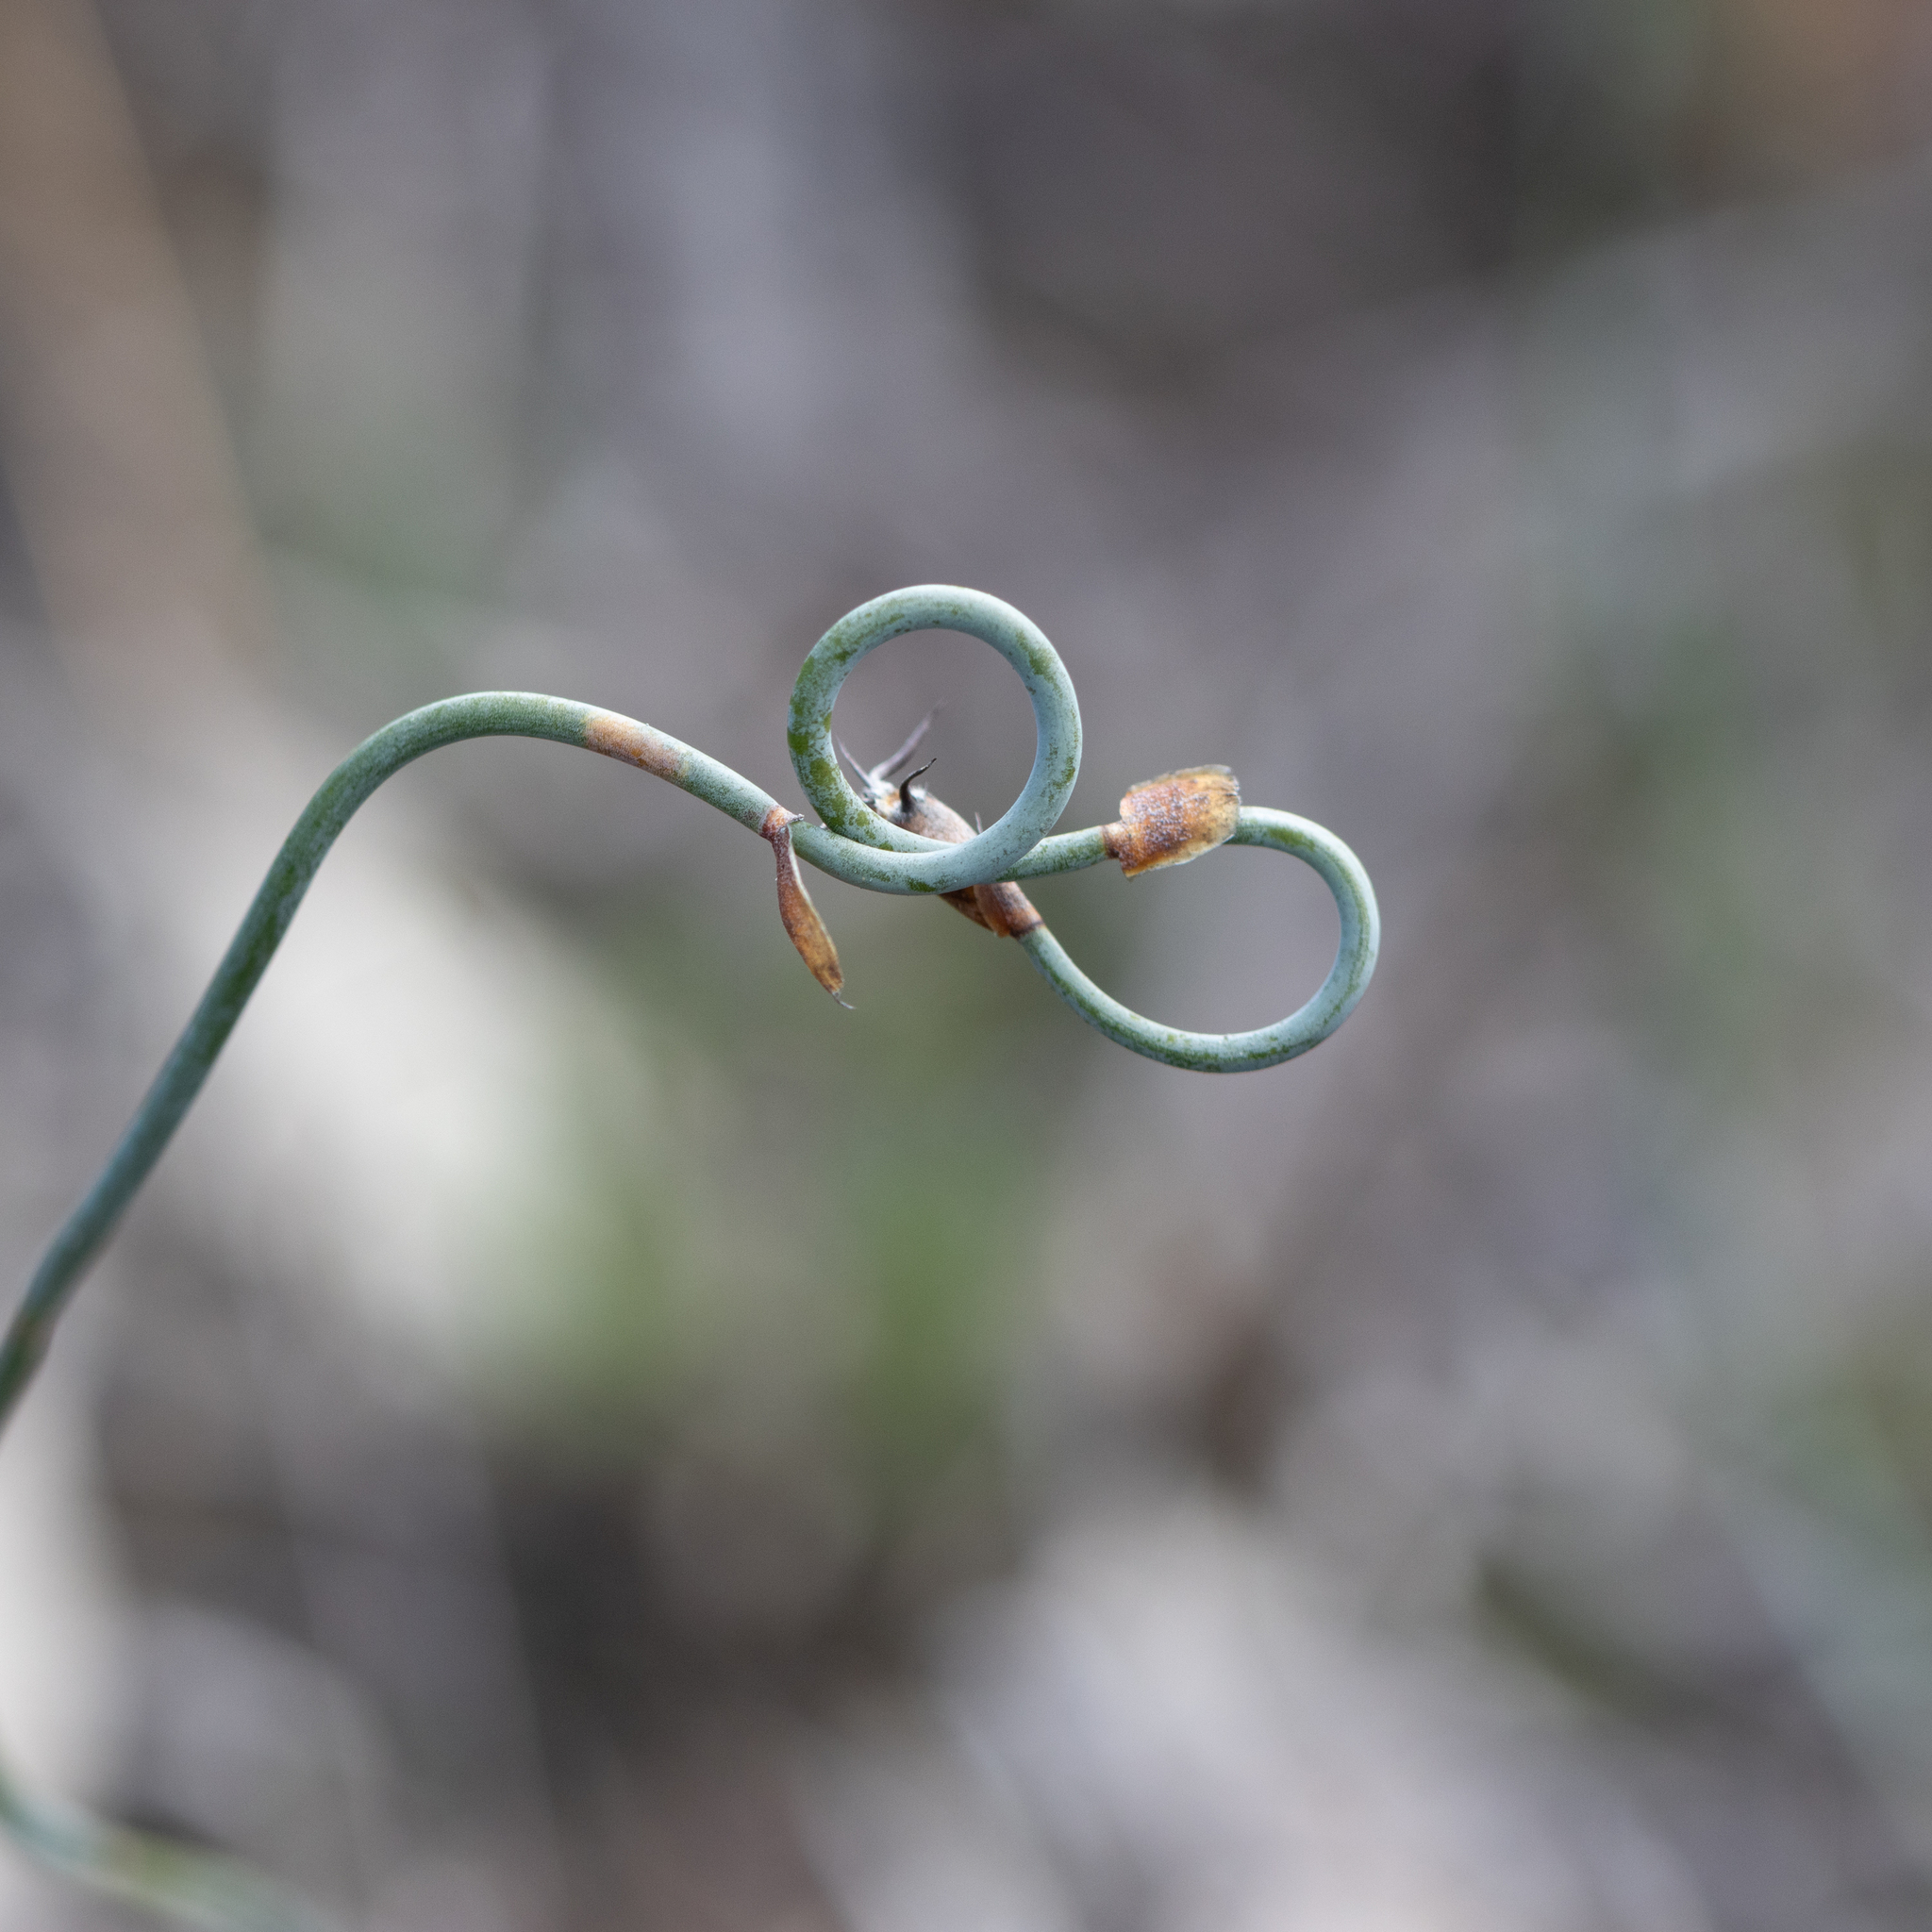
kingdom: Plantae
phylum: Tracheophyta
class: Liliopsida
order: Poales
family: Restionaceae
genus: Lepidobolus
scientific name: Lepidobolus drapetocoleus
